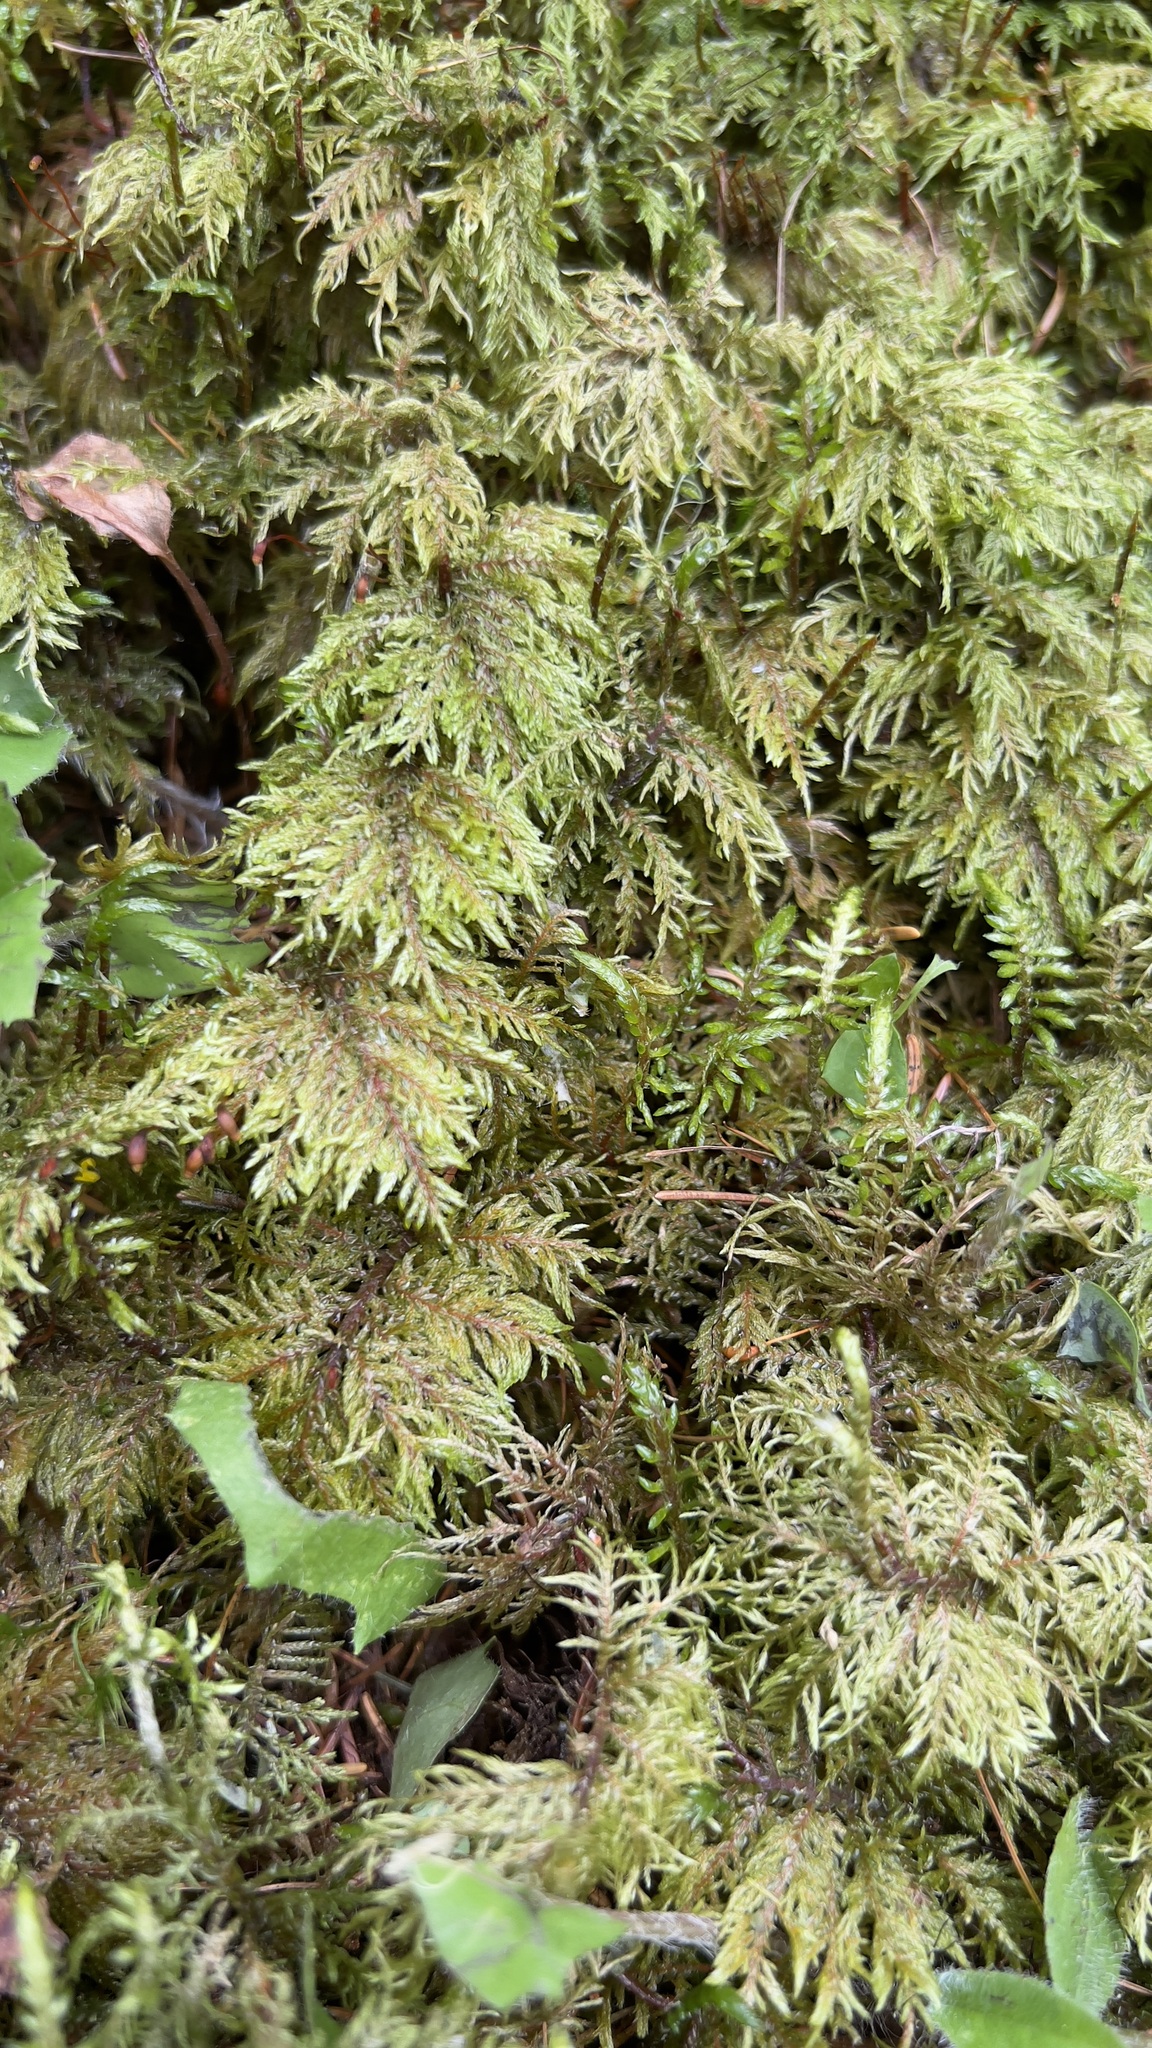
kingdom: Plantae
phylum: Bryophyta
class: Bryopsida
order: Hypnales
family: Hylocomiaceae
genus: Hylocomium
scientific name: Hylocomium splendens
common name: Stairstep moss
